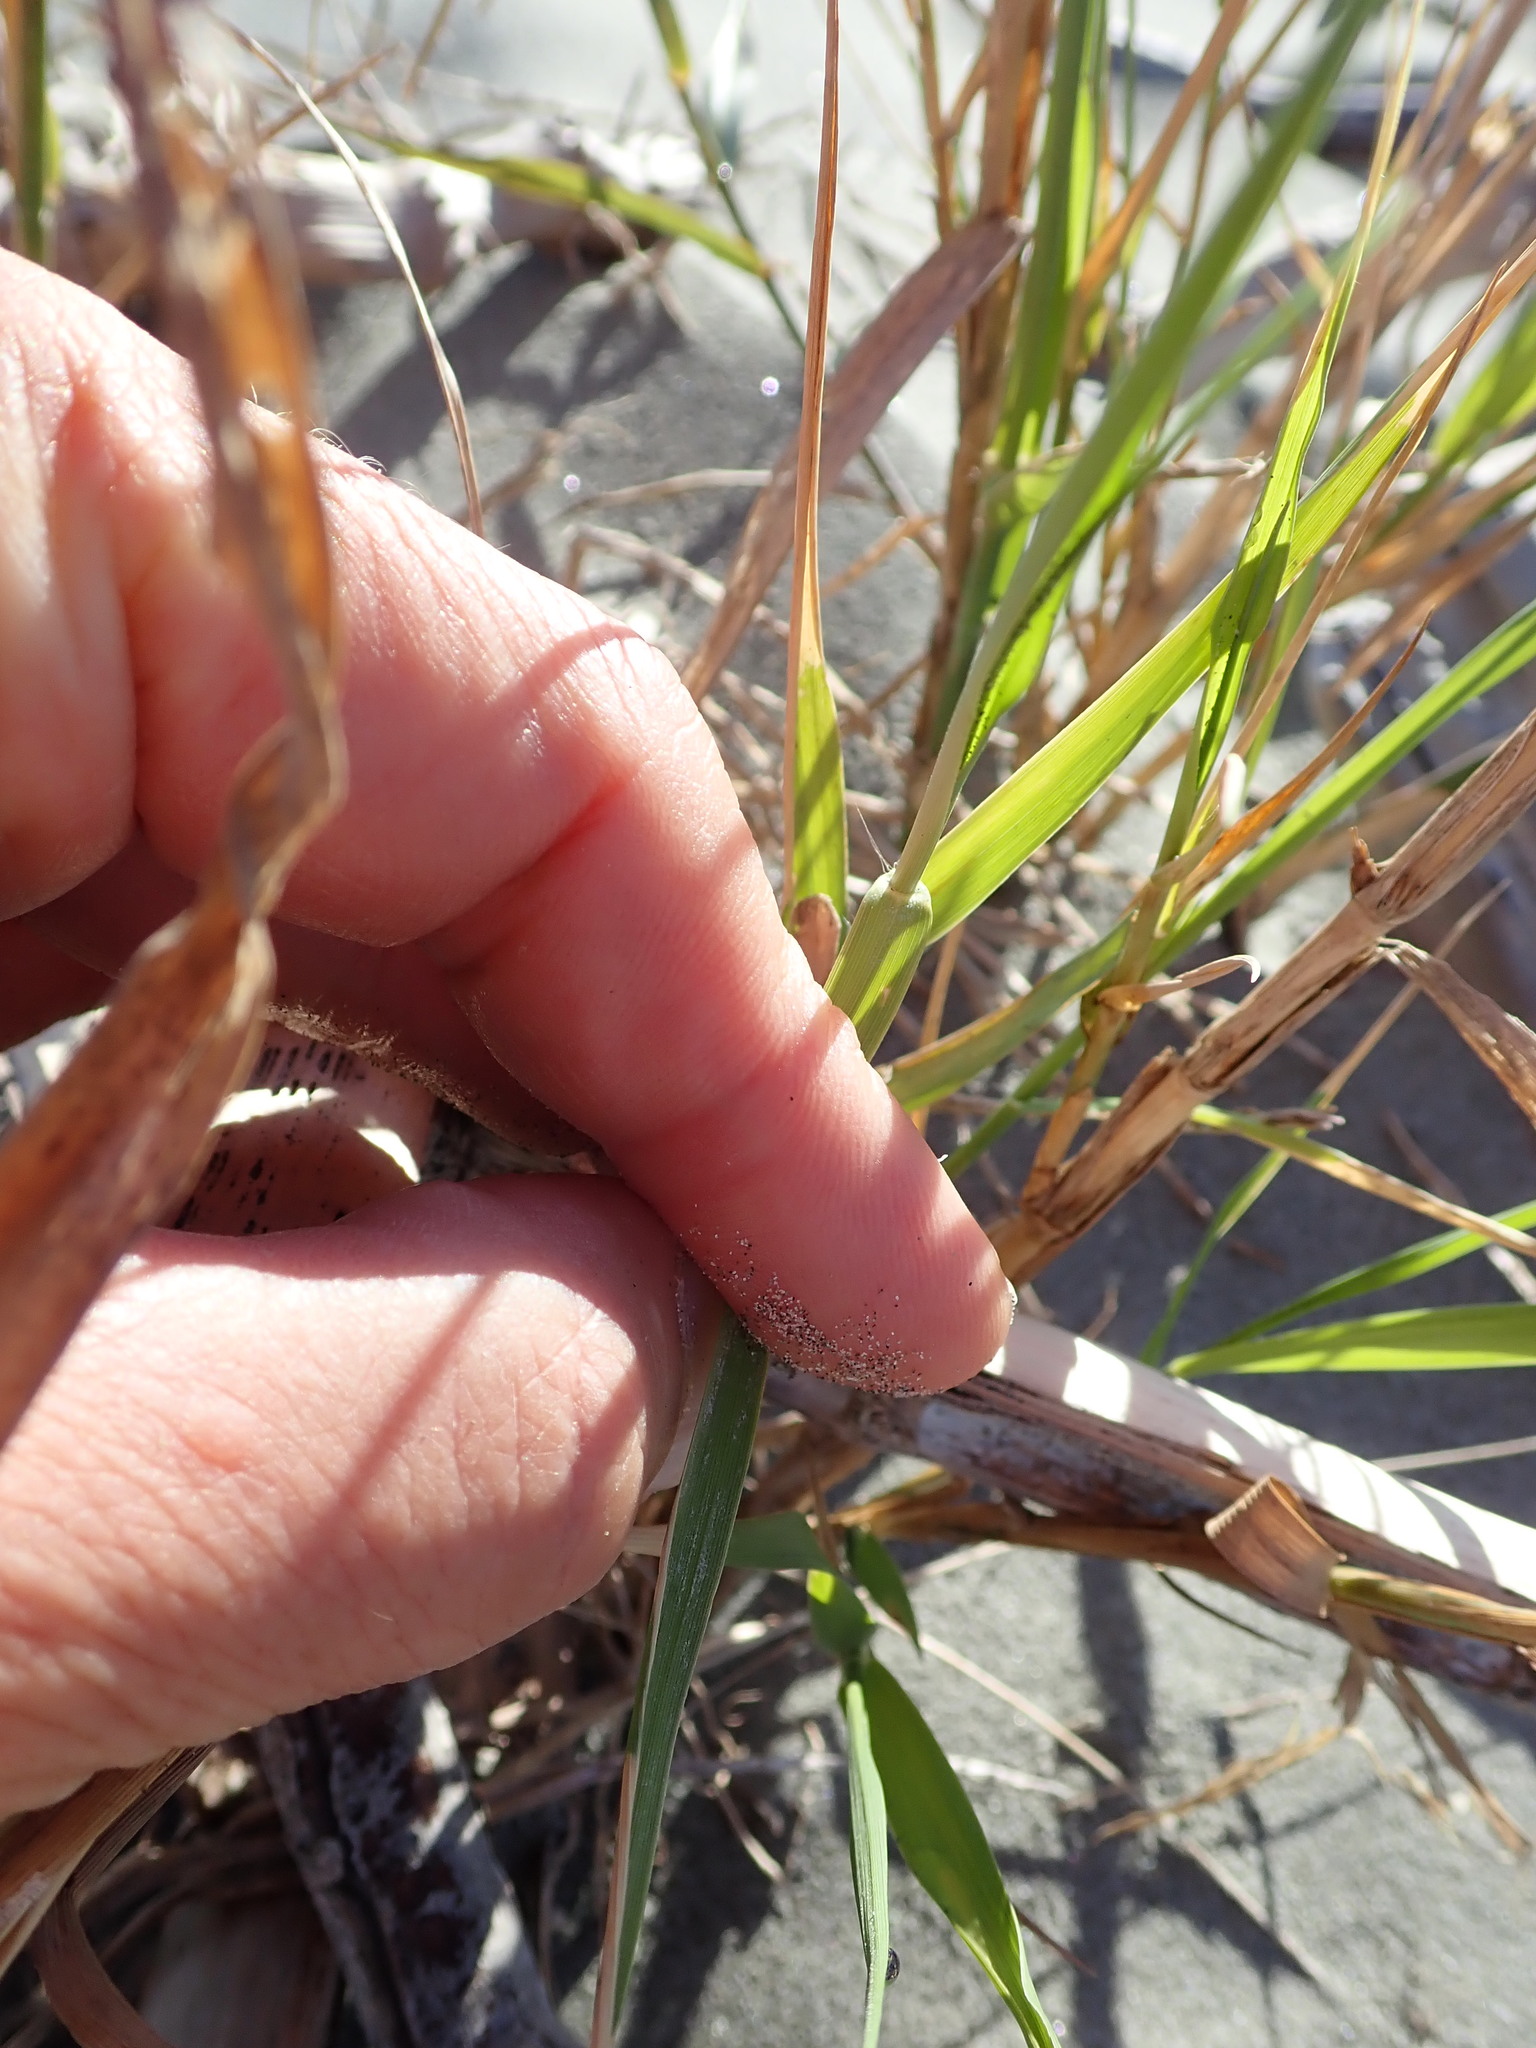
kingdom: Plantae
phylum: Tracheophyta
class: Liliopsida
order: Poales
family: Poaceae
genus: Phragmites
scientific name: Phragmites karka
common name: Tropical reed
